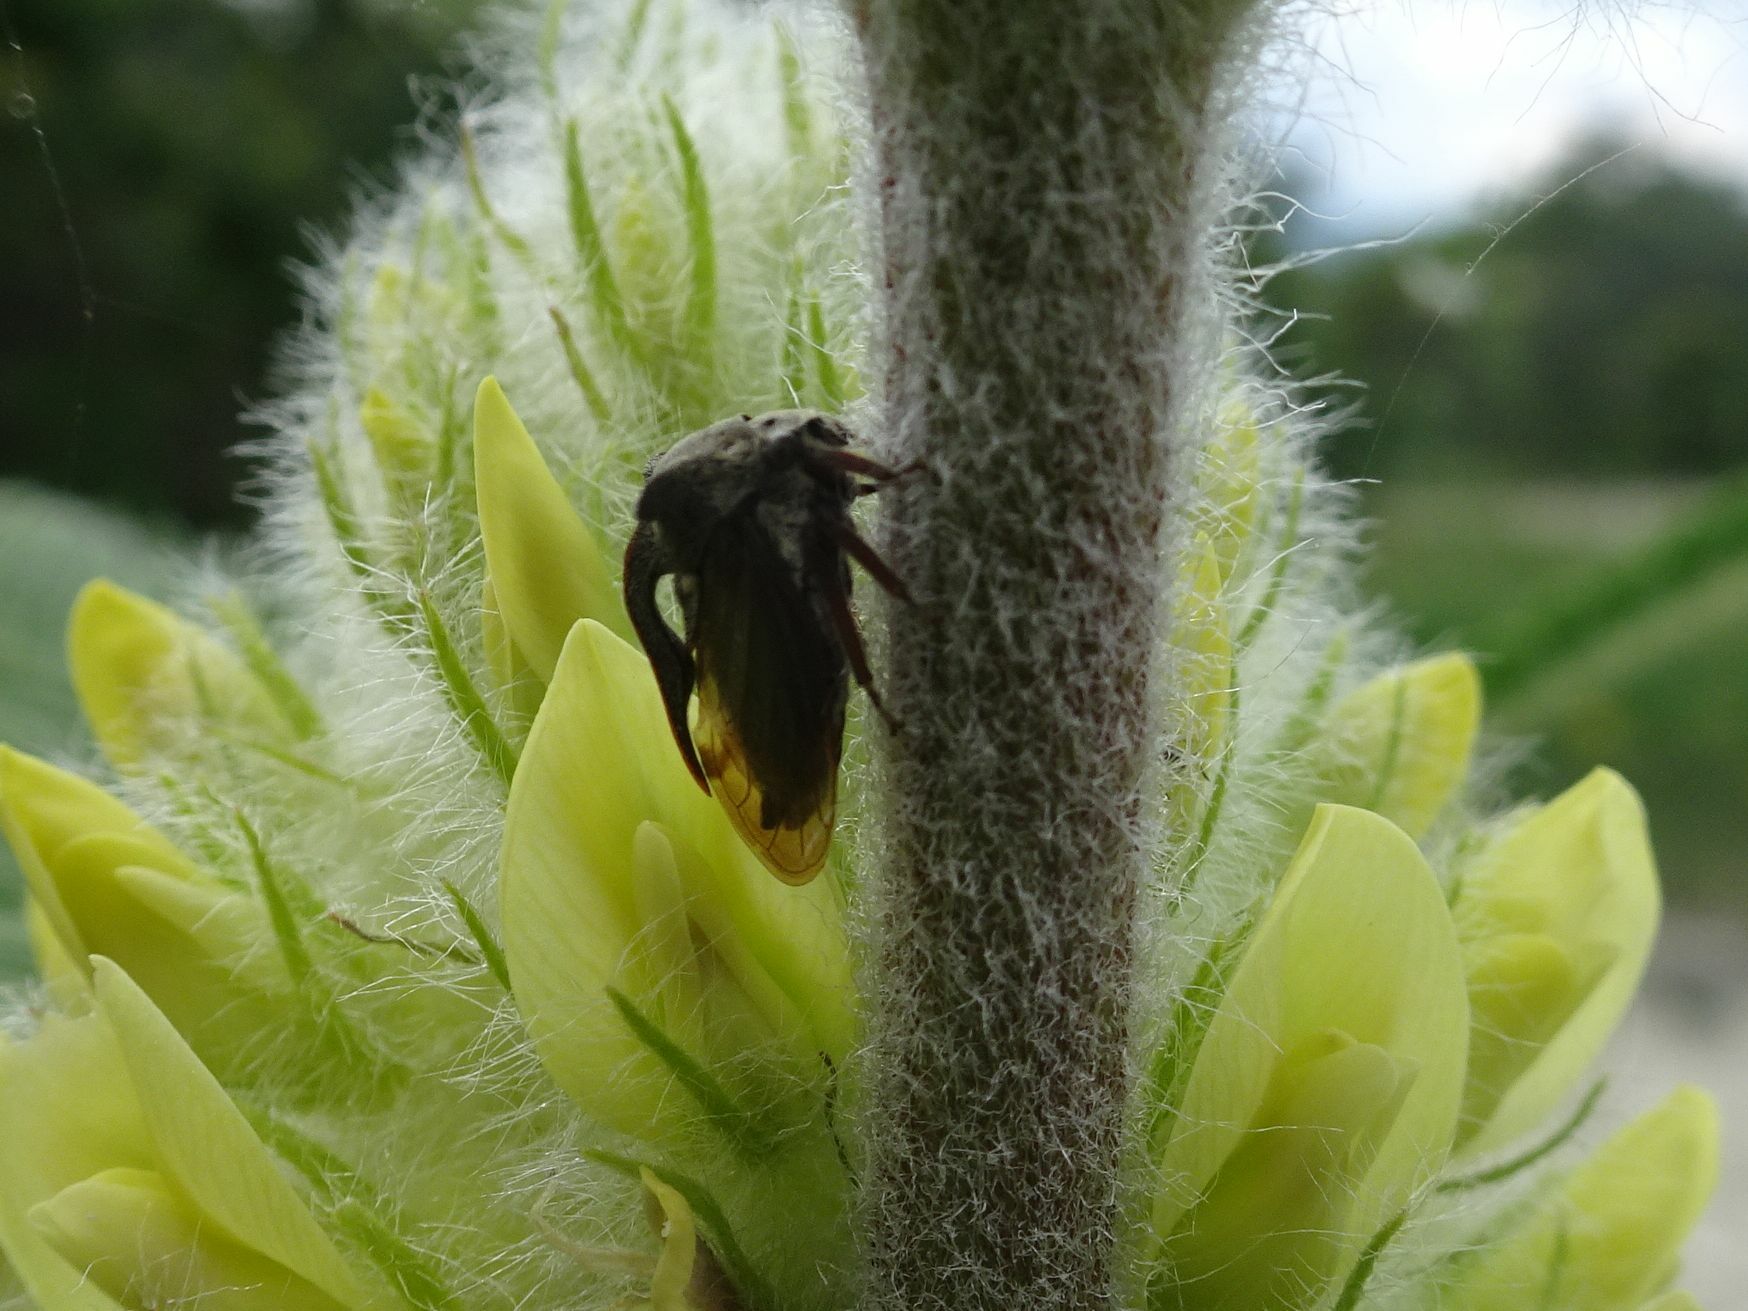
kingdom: Animalia
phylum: Arthropoda
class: Insecta
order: Hemiptera
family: Membracidae
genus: Centrotus
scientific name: Centrotus cornuta
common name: Treehopper
